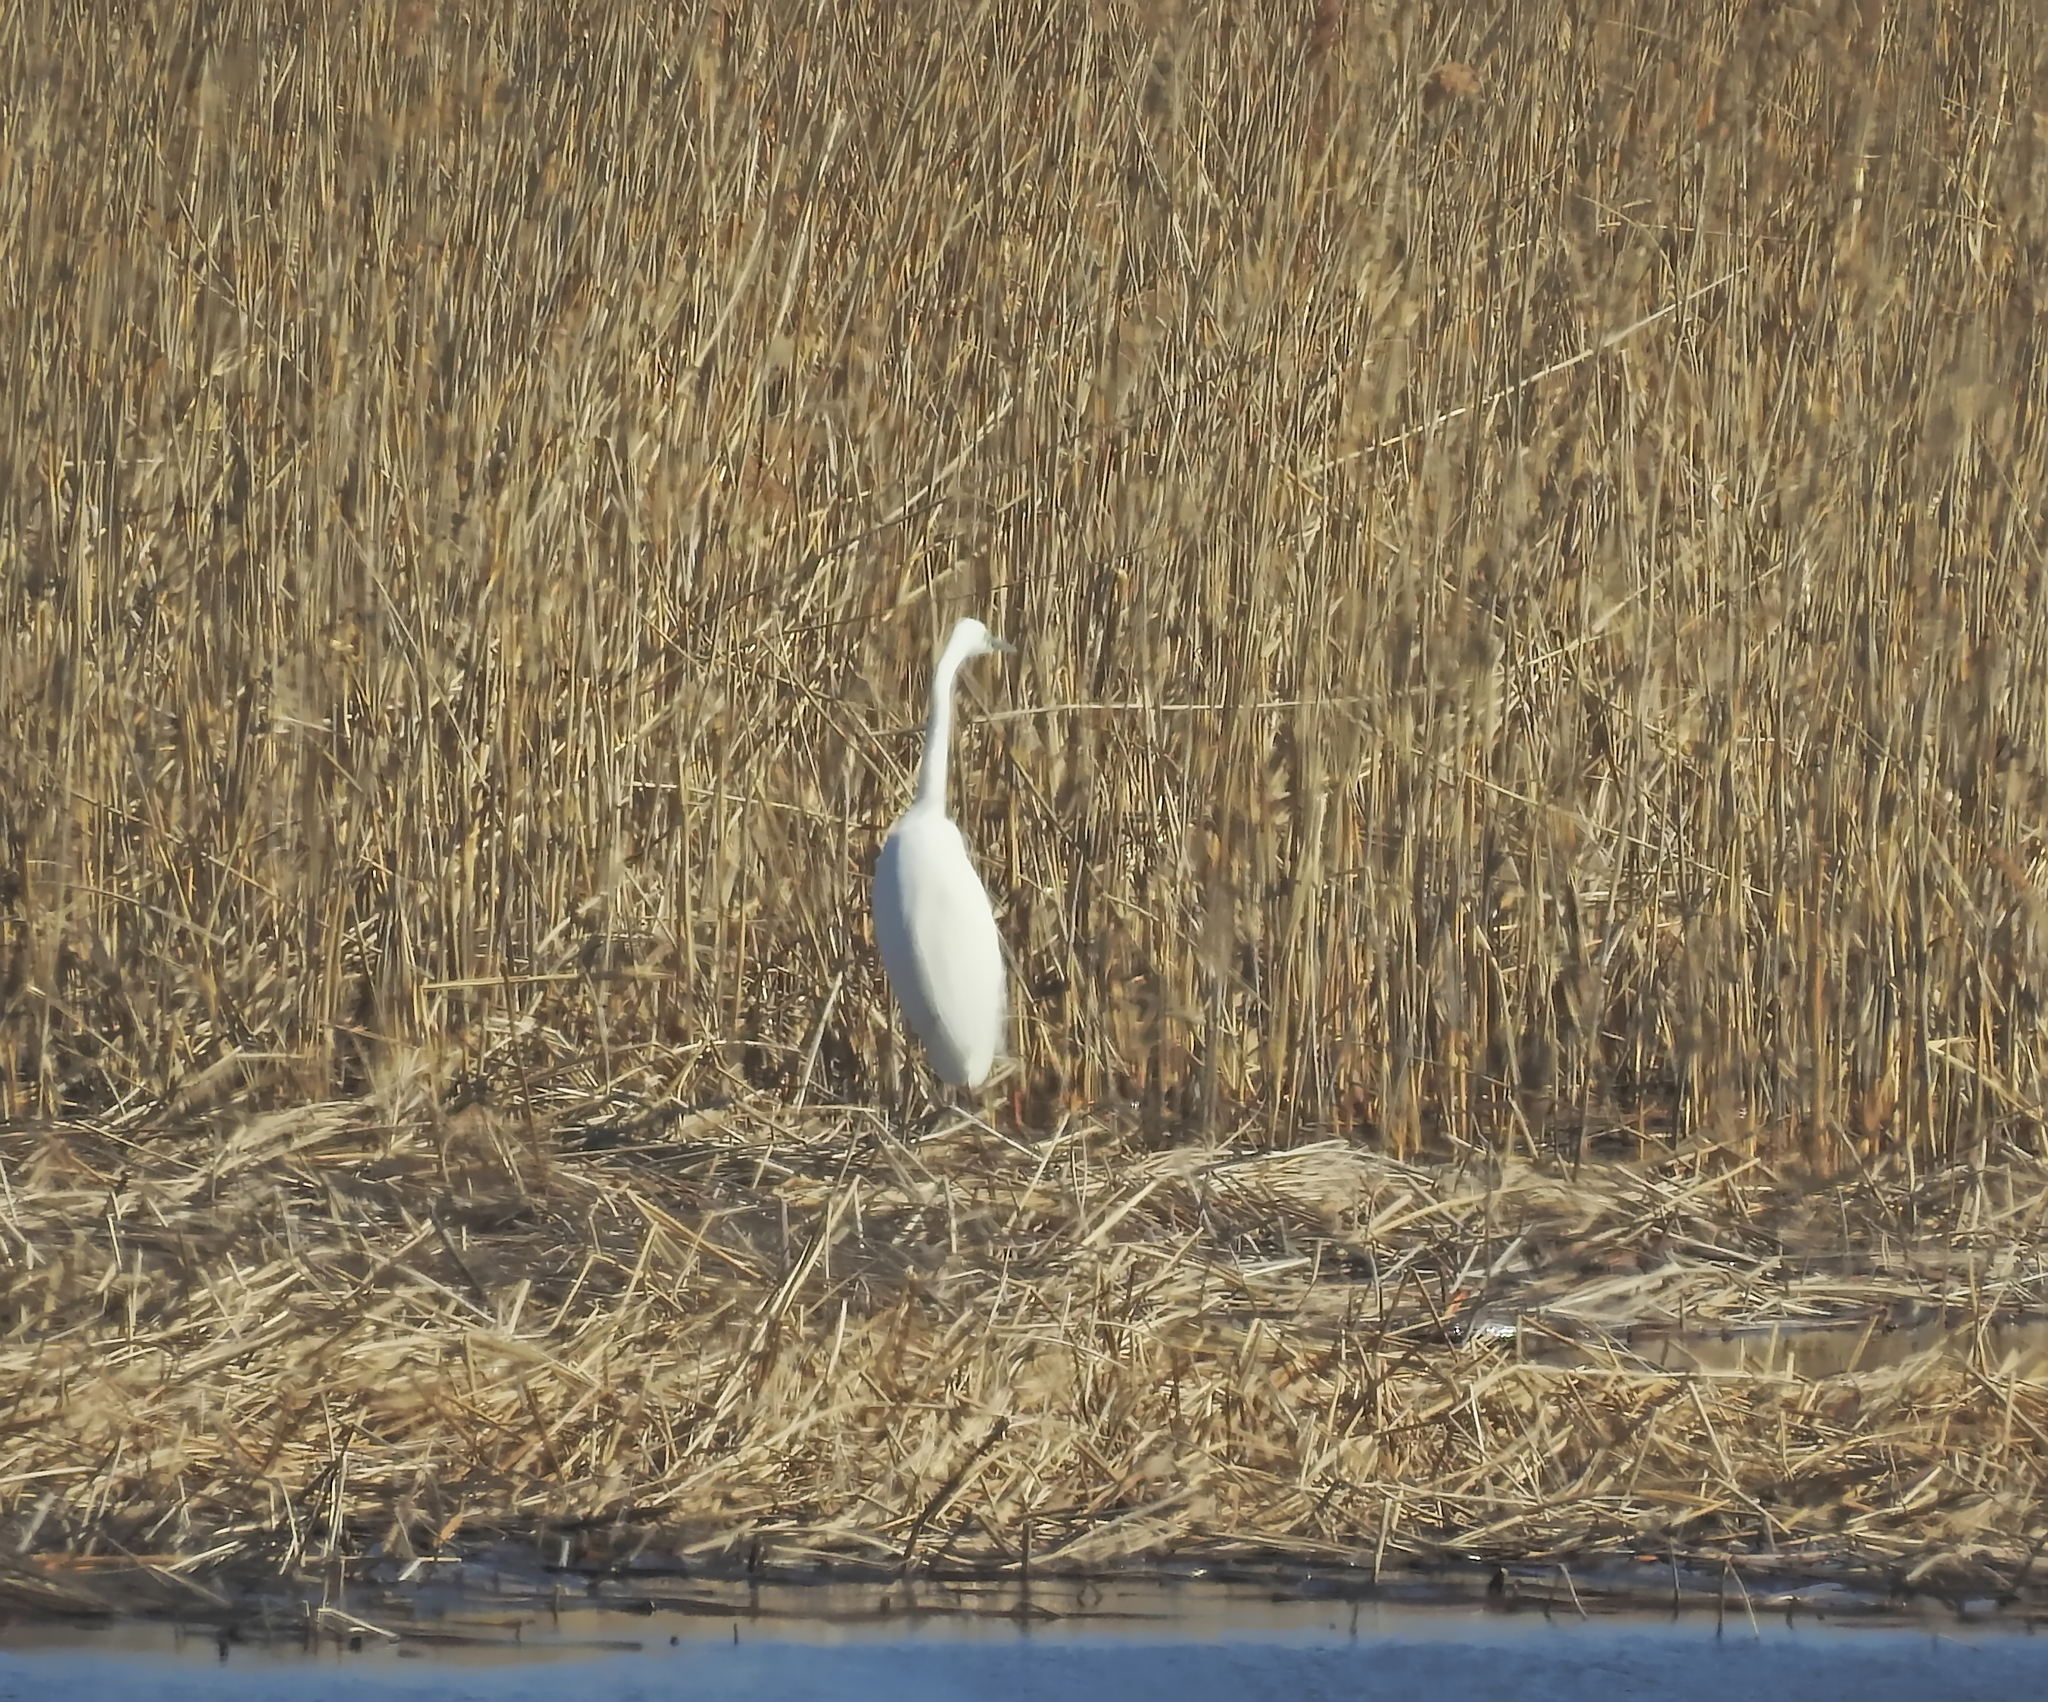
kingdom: Animalia
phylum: Chordata
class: Aves
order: Pelecaniformes
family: Ardeidae
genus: Ardea
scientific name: Ardea alba
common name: Great egret
